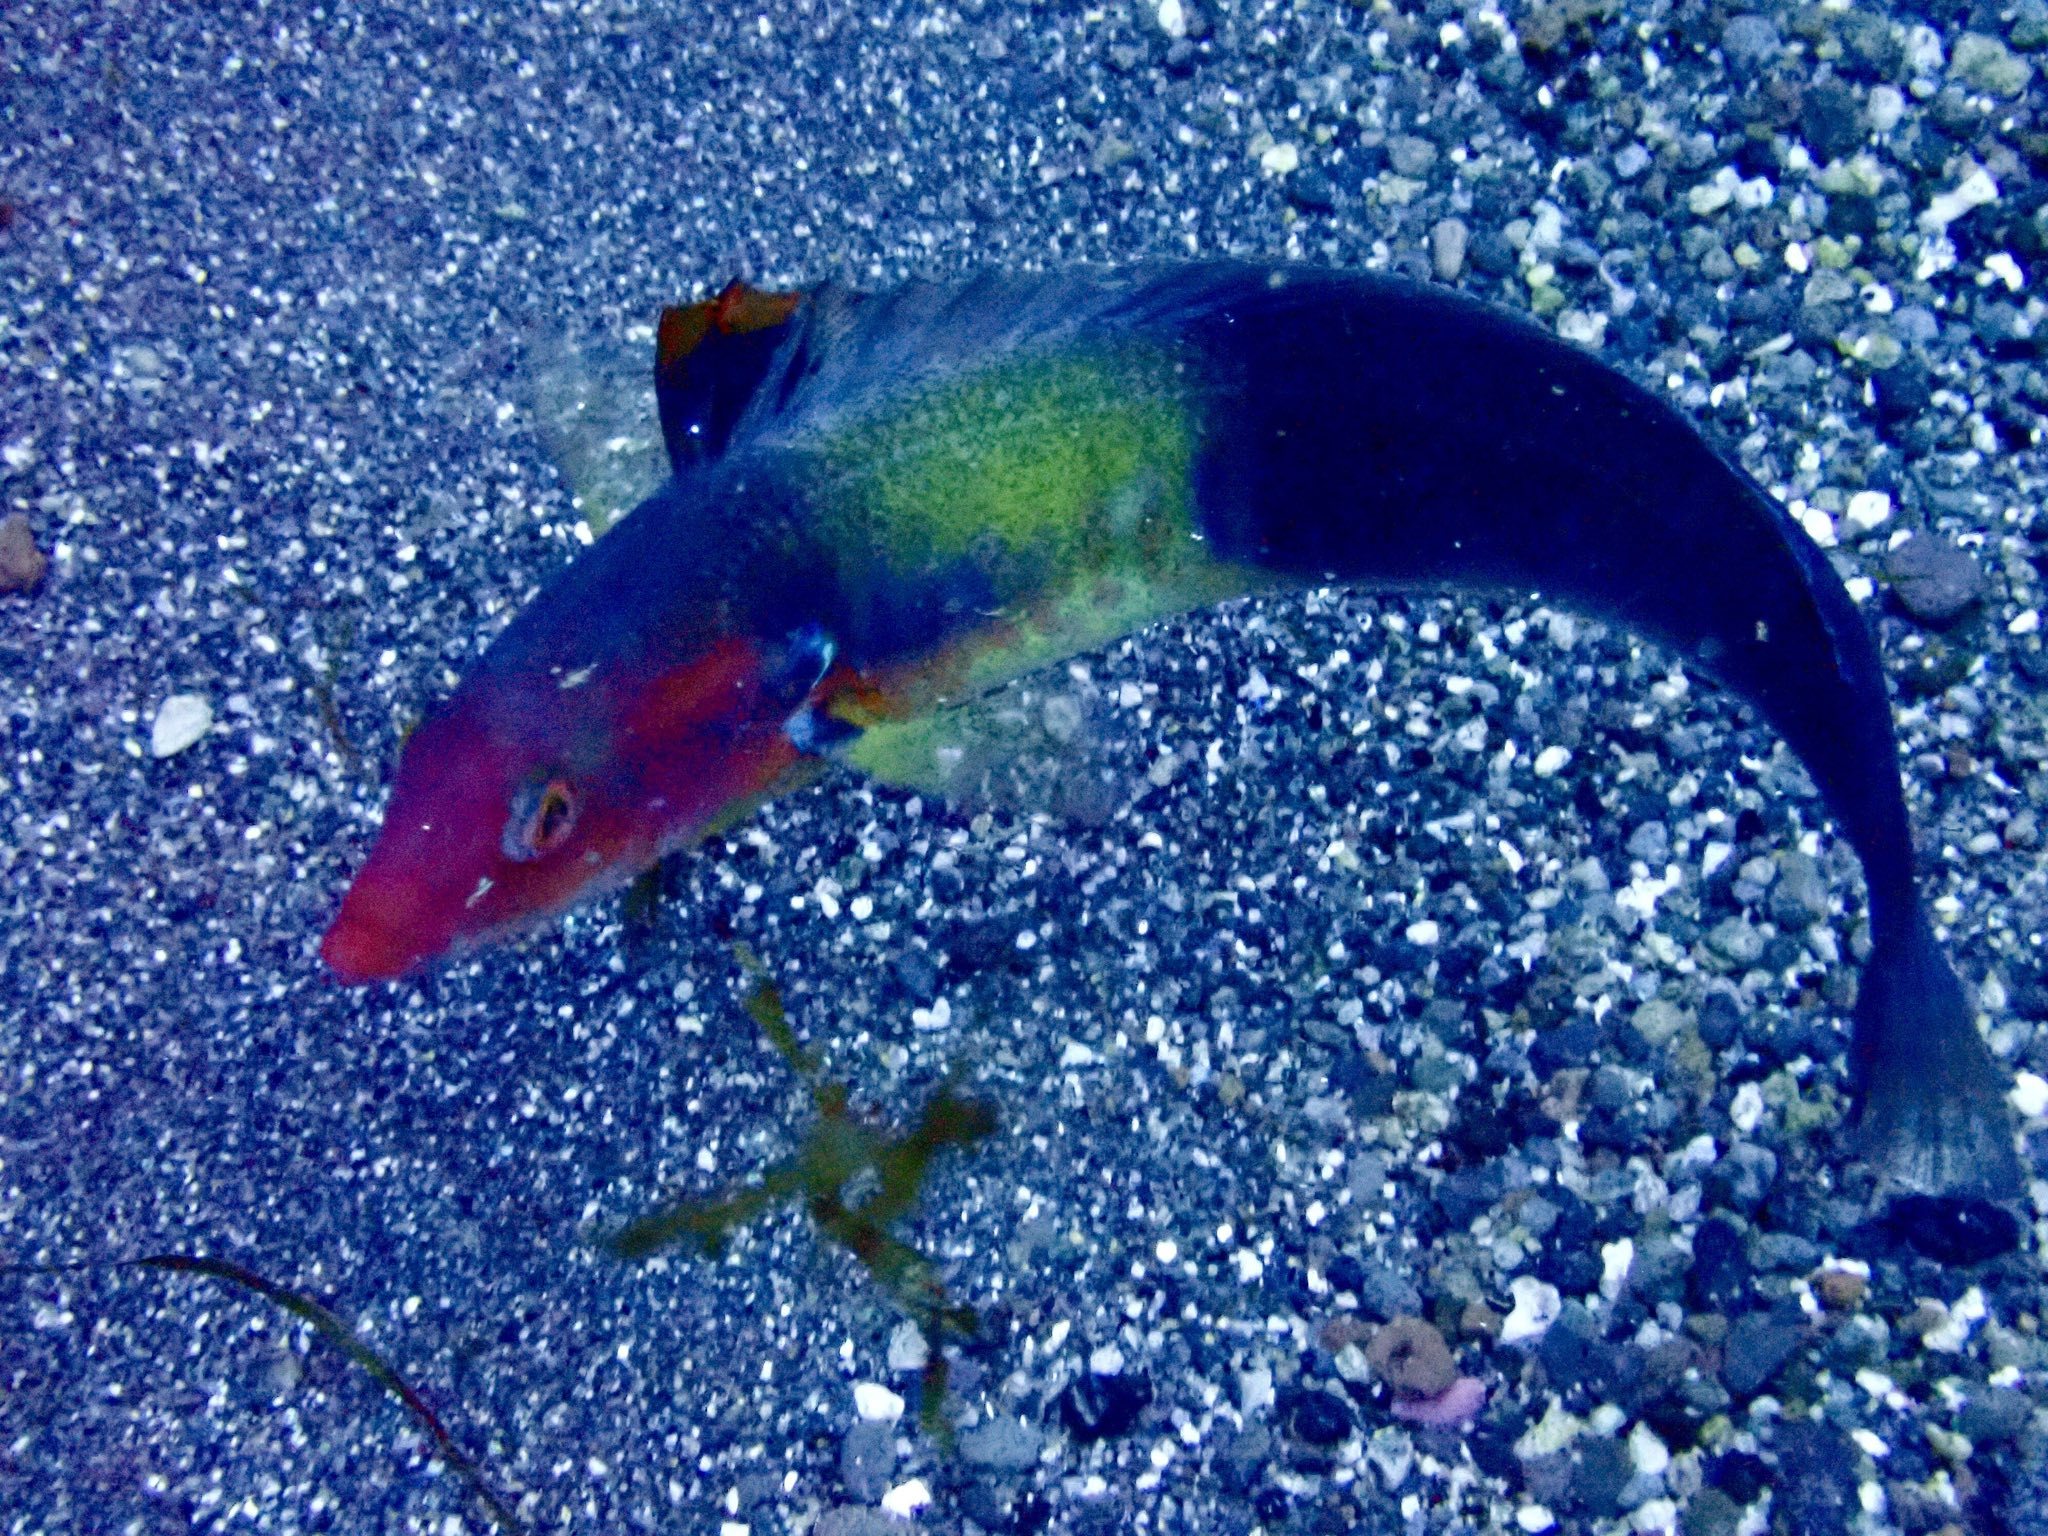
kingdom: Animalia
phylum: Chordata
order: Perciformes
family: Labridae
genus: Coris
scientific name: Coris
